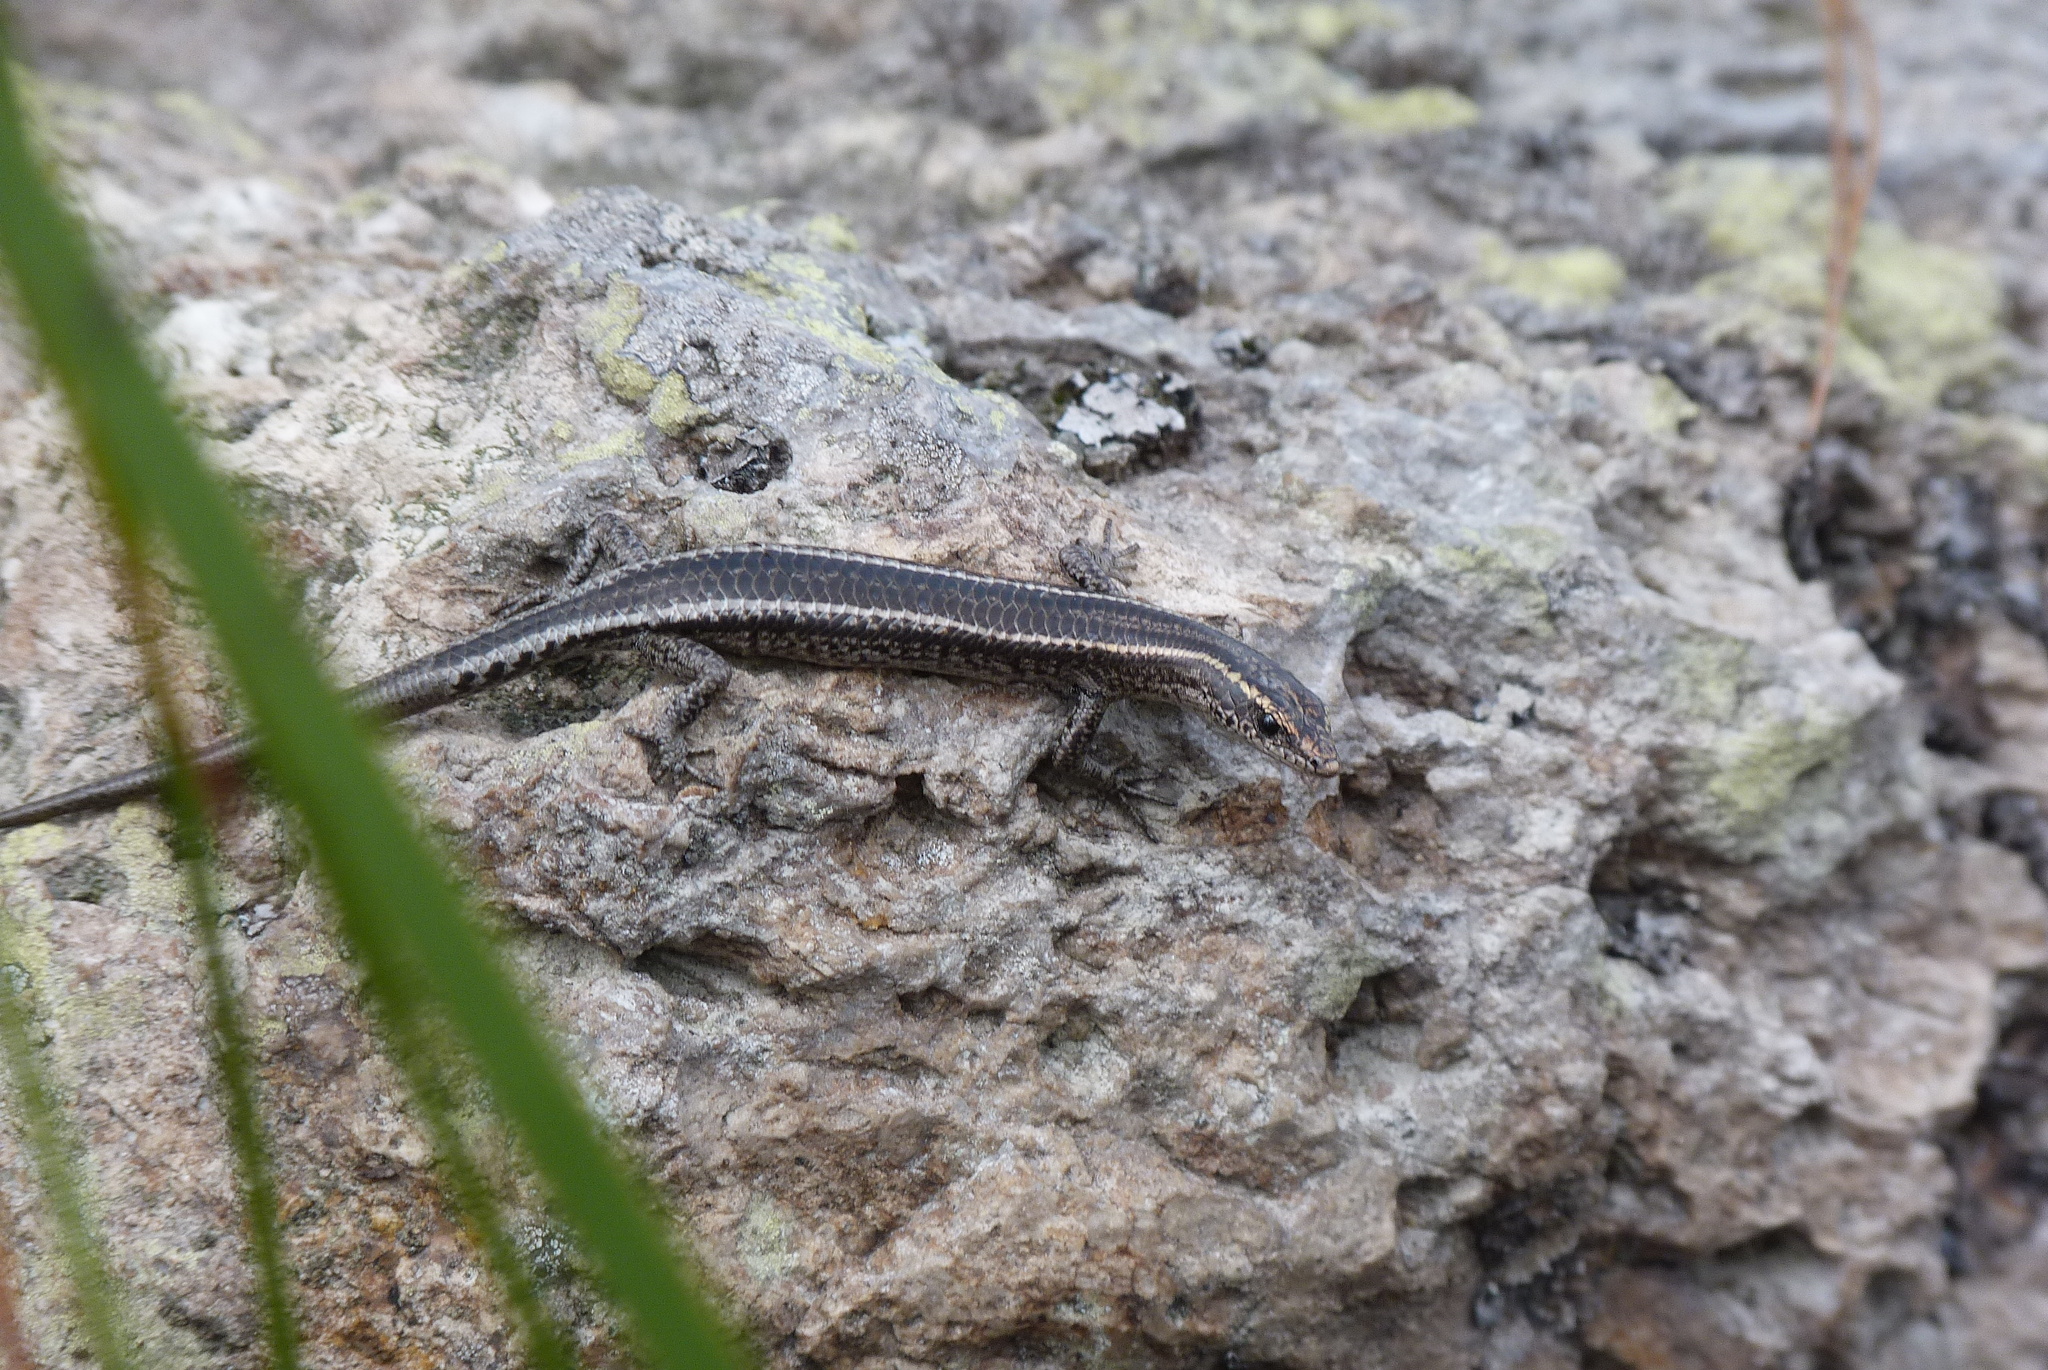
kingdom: Animalia
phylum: Chordata
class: Squamata
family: Scincidae
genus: Cryptoblepharus
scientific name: Cryptoblepharus pulcher
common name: Elegant snake-eyed skink
